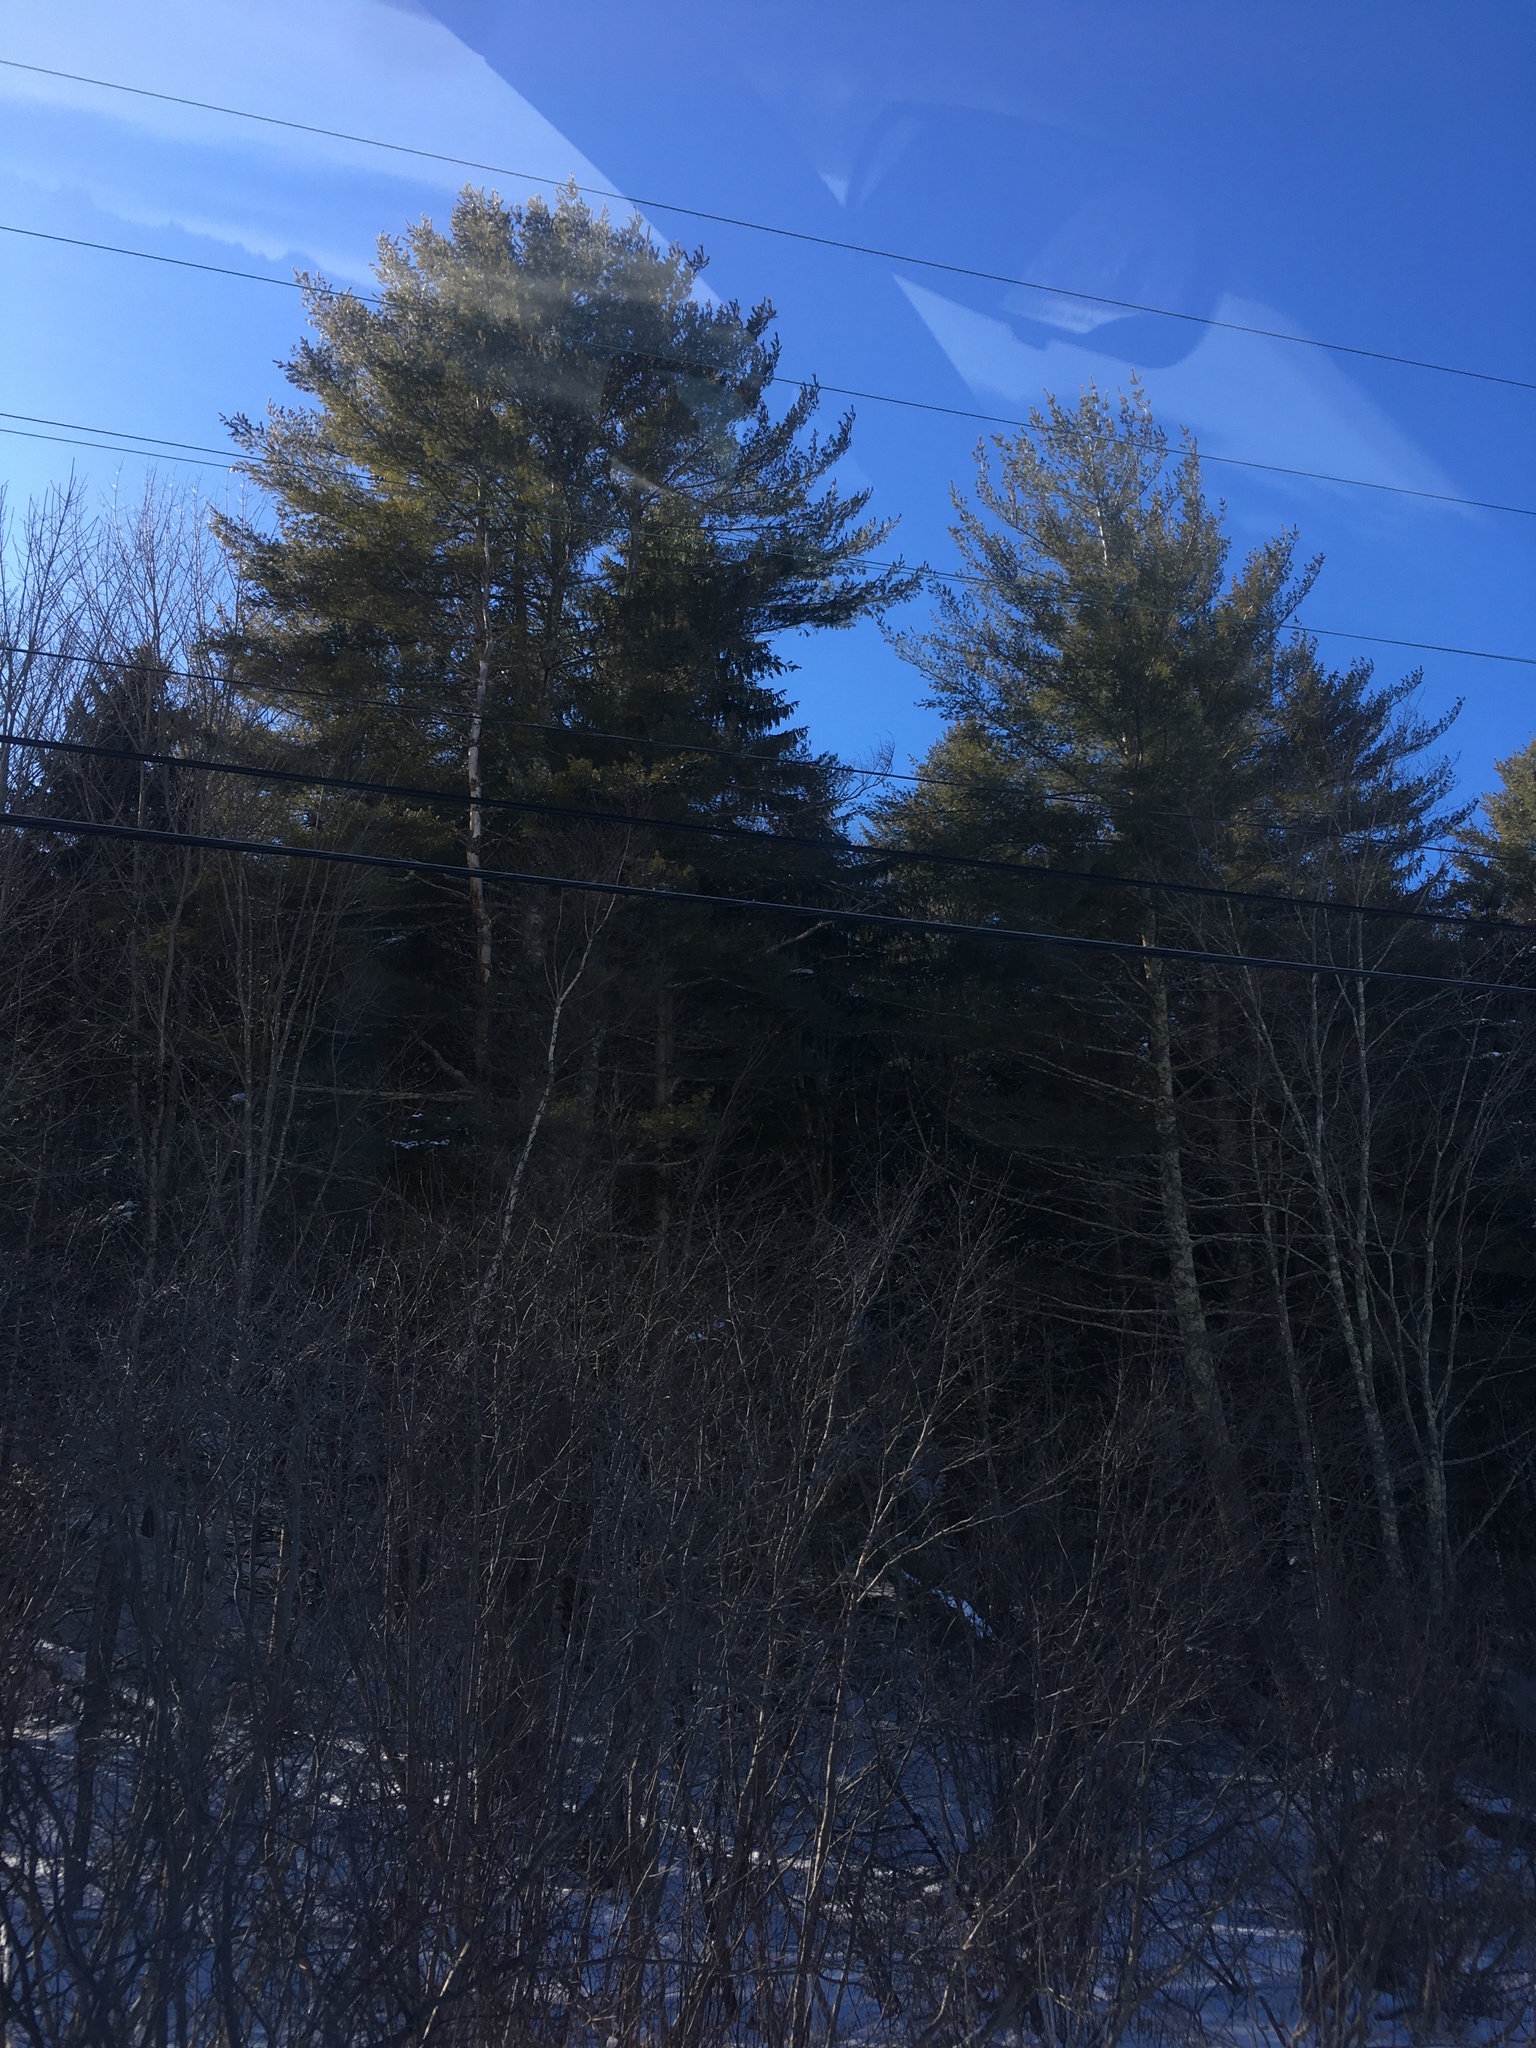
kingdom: Plantae
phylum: Tracheophyta
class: Pinopsida
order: Pinales
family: Pinaceae
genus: Pinus
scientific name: Pinus strobus
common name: Weymouth pine
